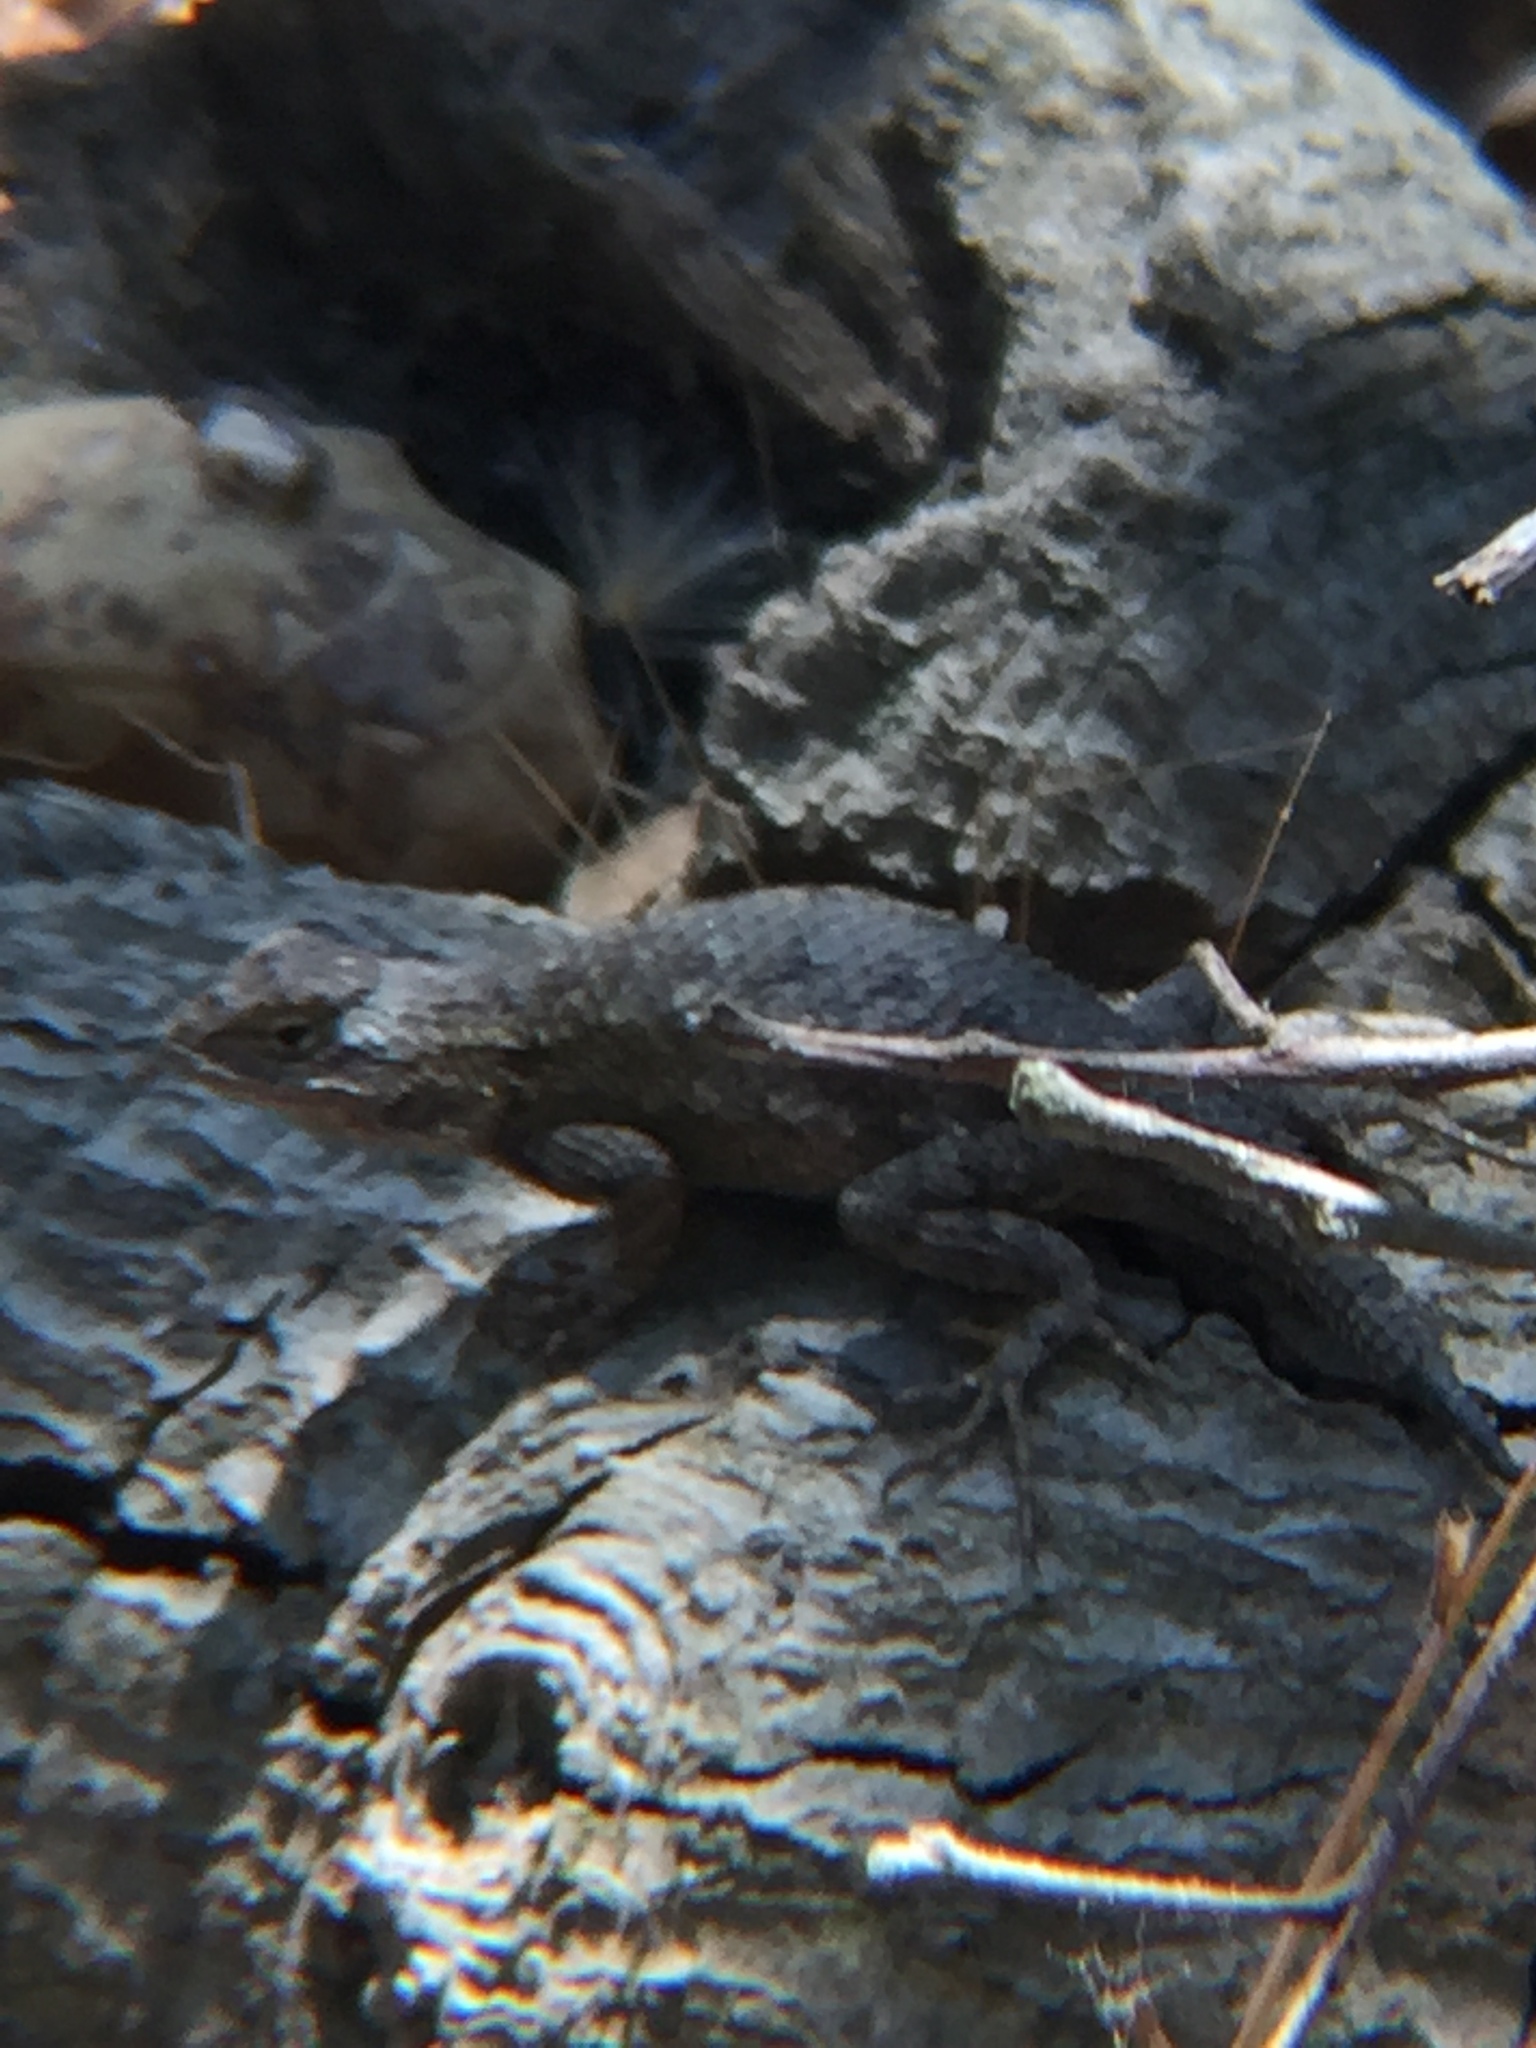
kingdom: Animalia
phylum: Chordata
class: Squamata
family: Phrynosomatidae
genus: Sceloporus
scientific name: Sceloporus occidentalis
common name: Western fence lizard
